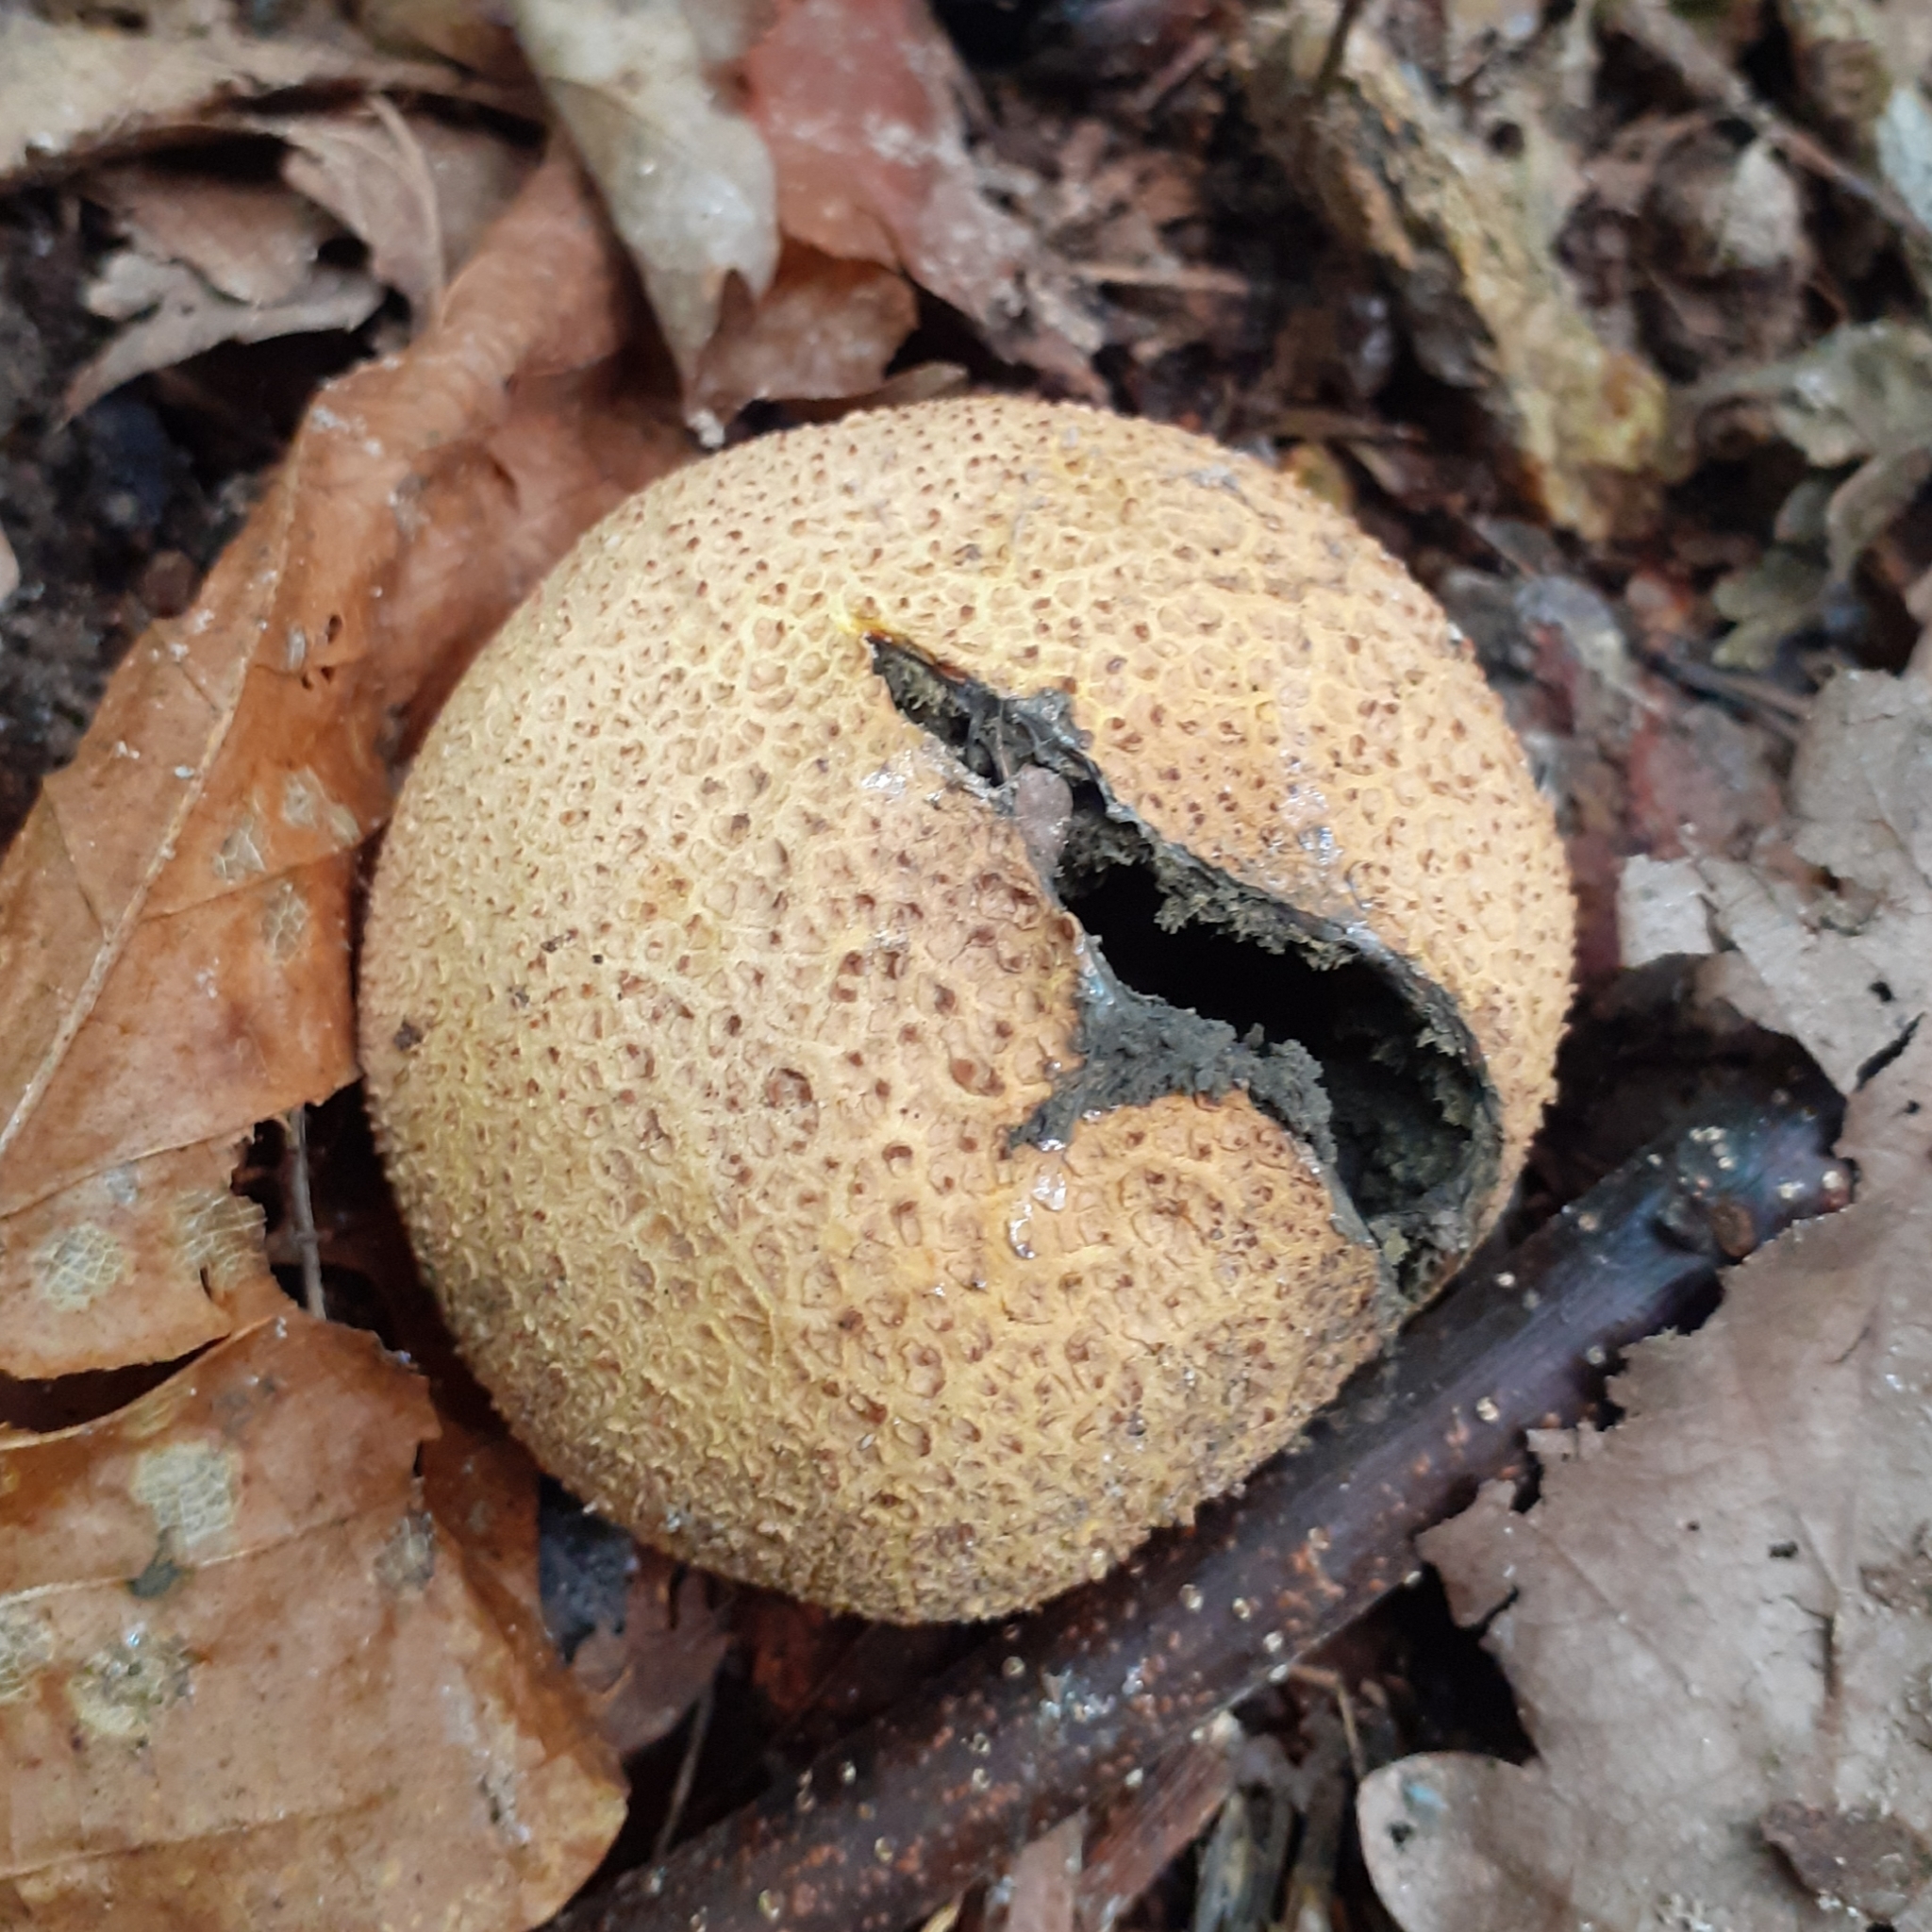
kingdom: Fungi
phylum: Basidiomycota
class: Agaricomycetes
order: Boletales
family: Sclerodermataceae
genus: Scleroderma
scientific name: Scleroderma citrinum
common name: Common earthball
